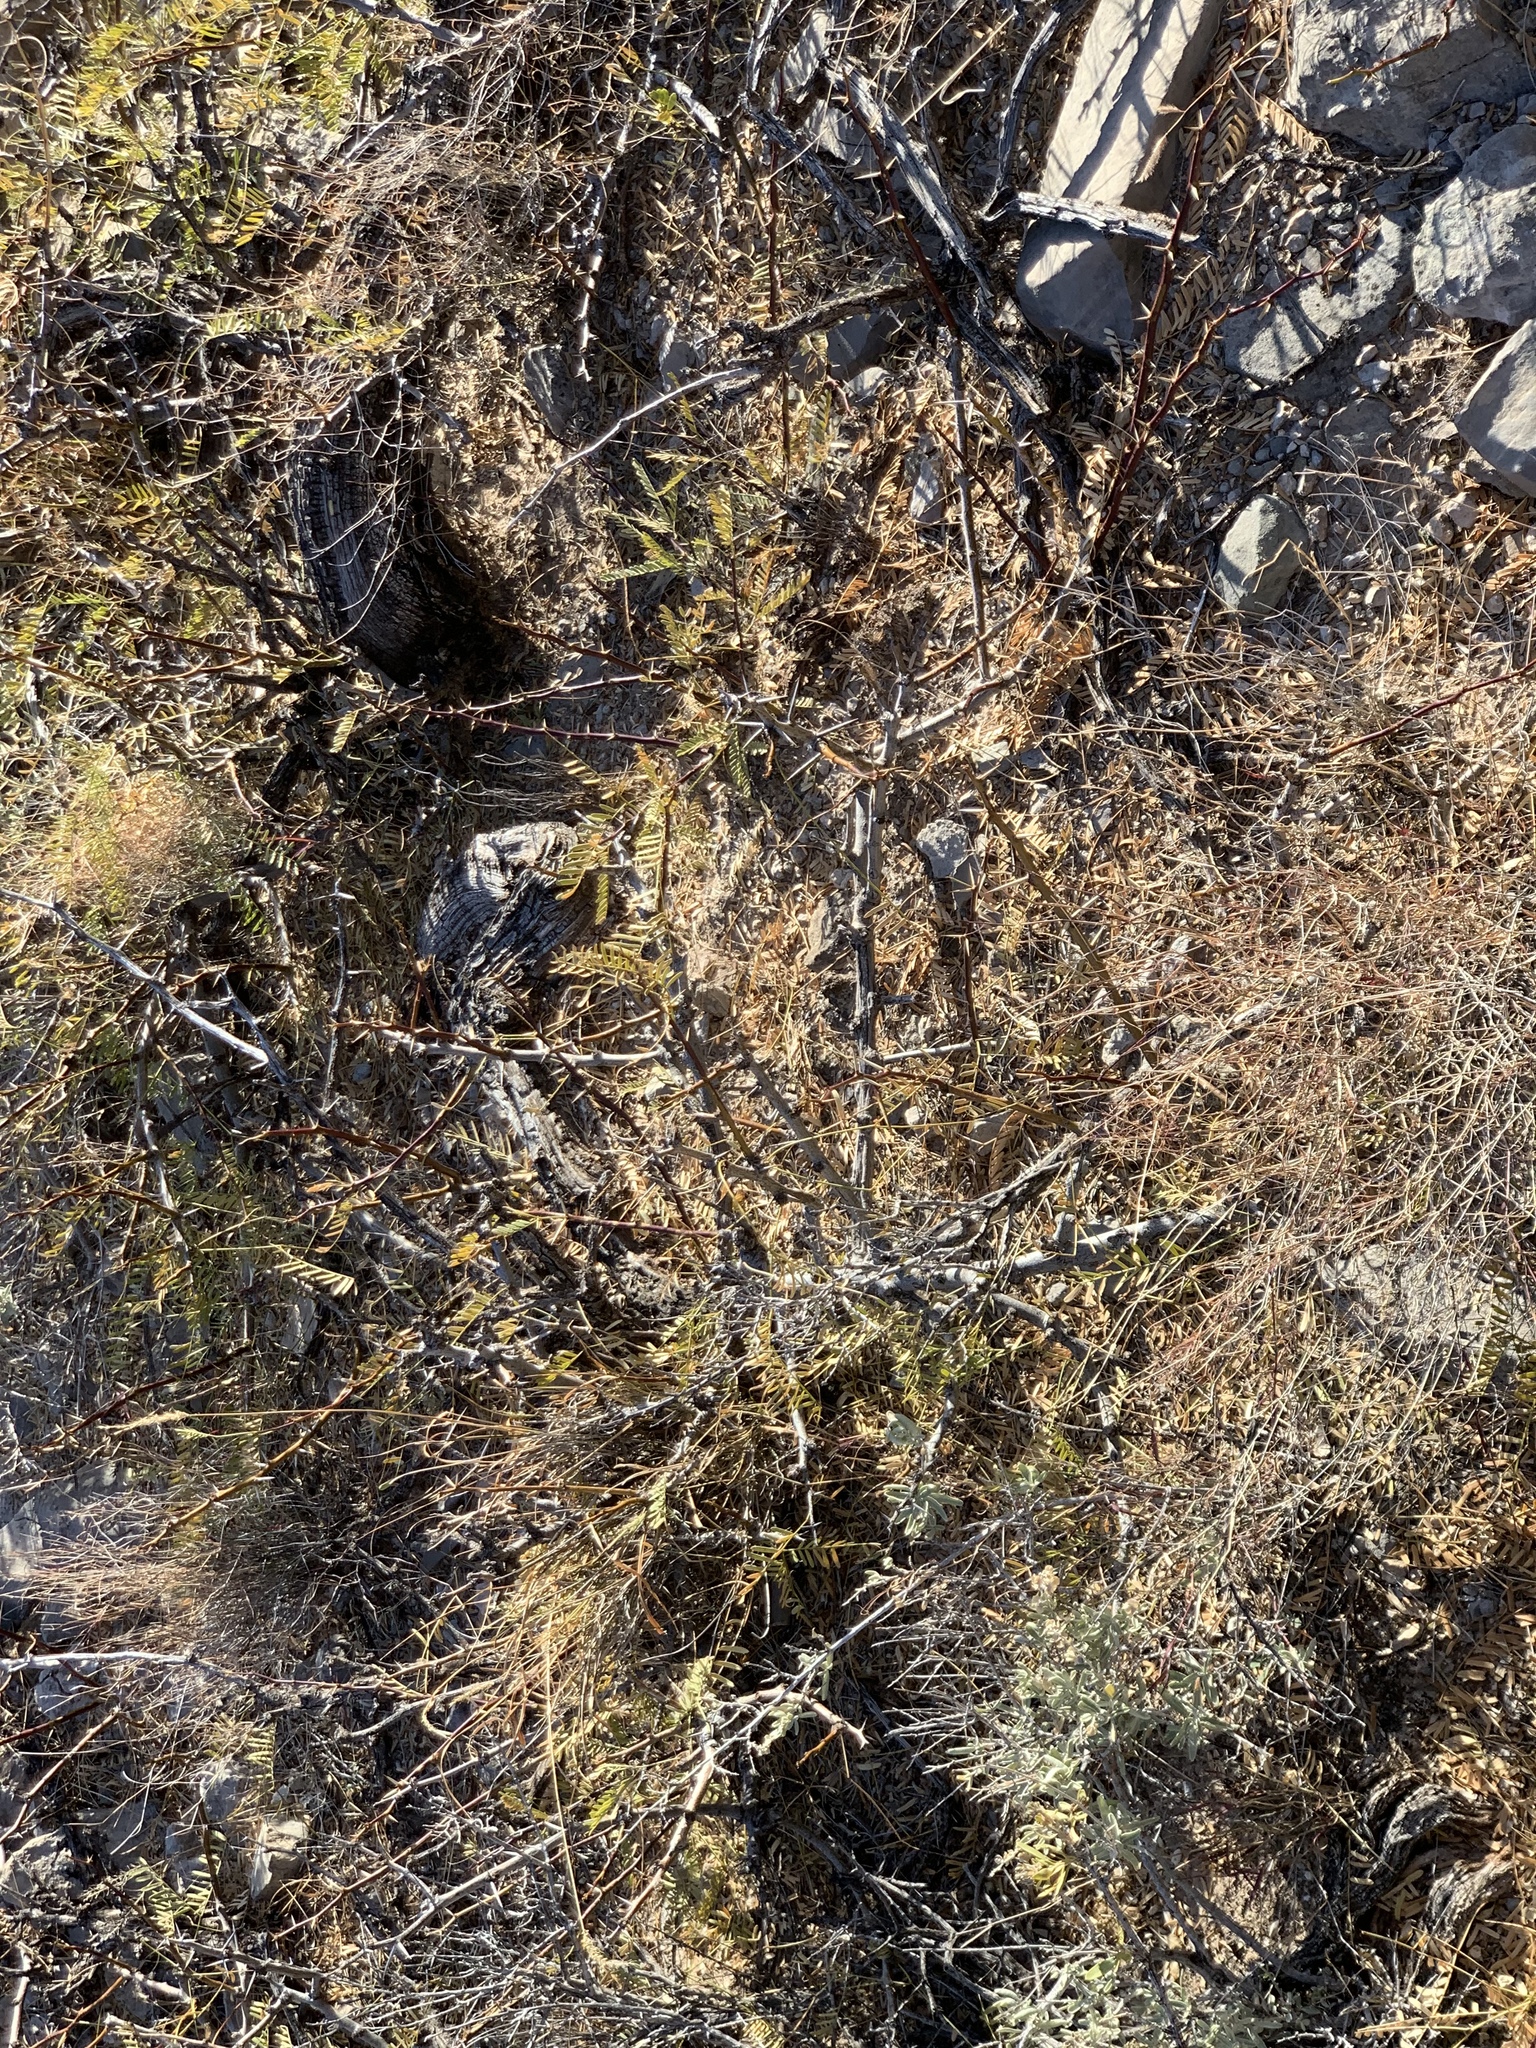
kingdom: Plantae
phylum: Tracheophyta
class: Magnoliopsida
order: Fabales
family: Fabaceae
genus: Prosopis
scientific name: Prosopis glandulosa
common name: Honey mesquite
